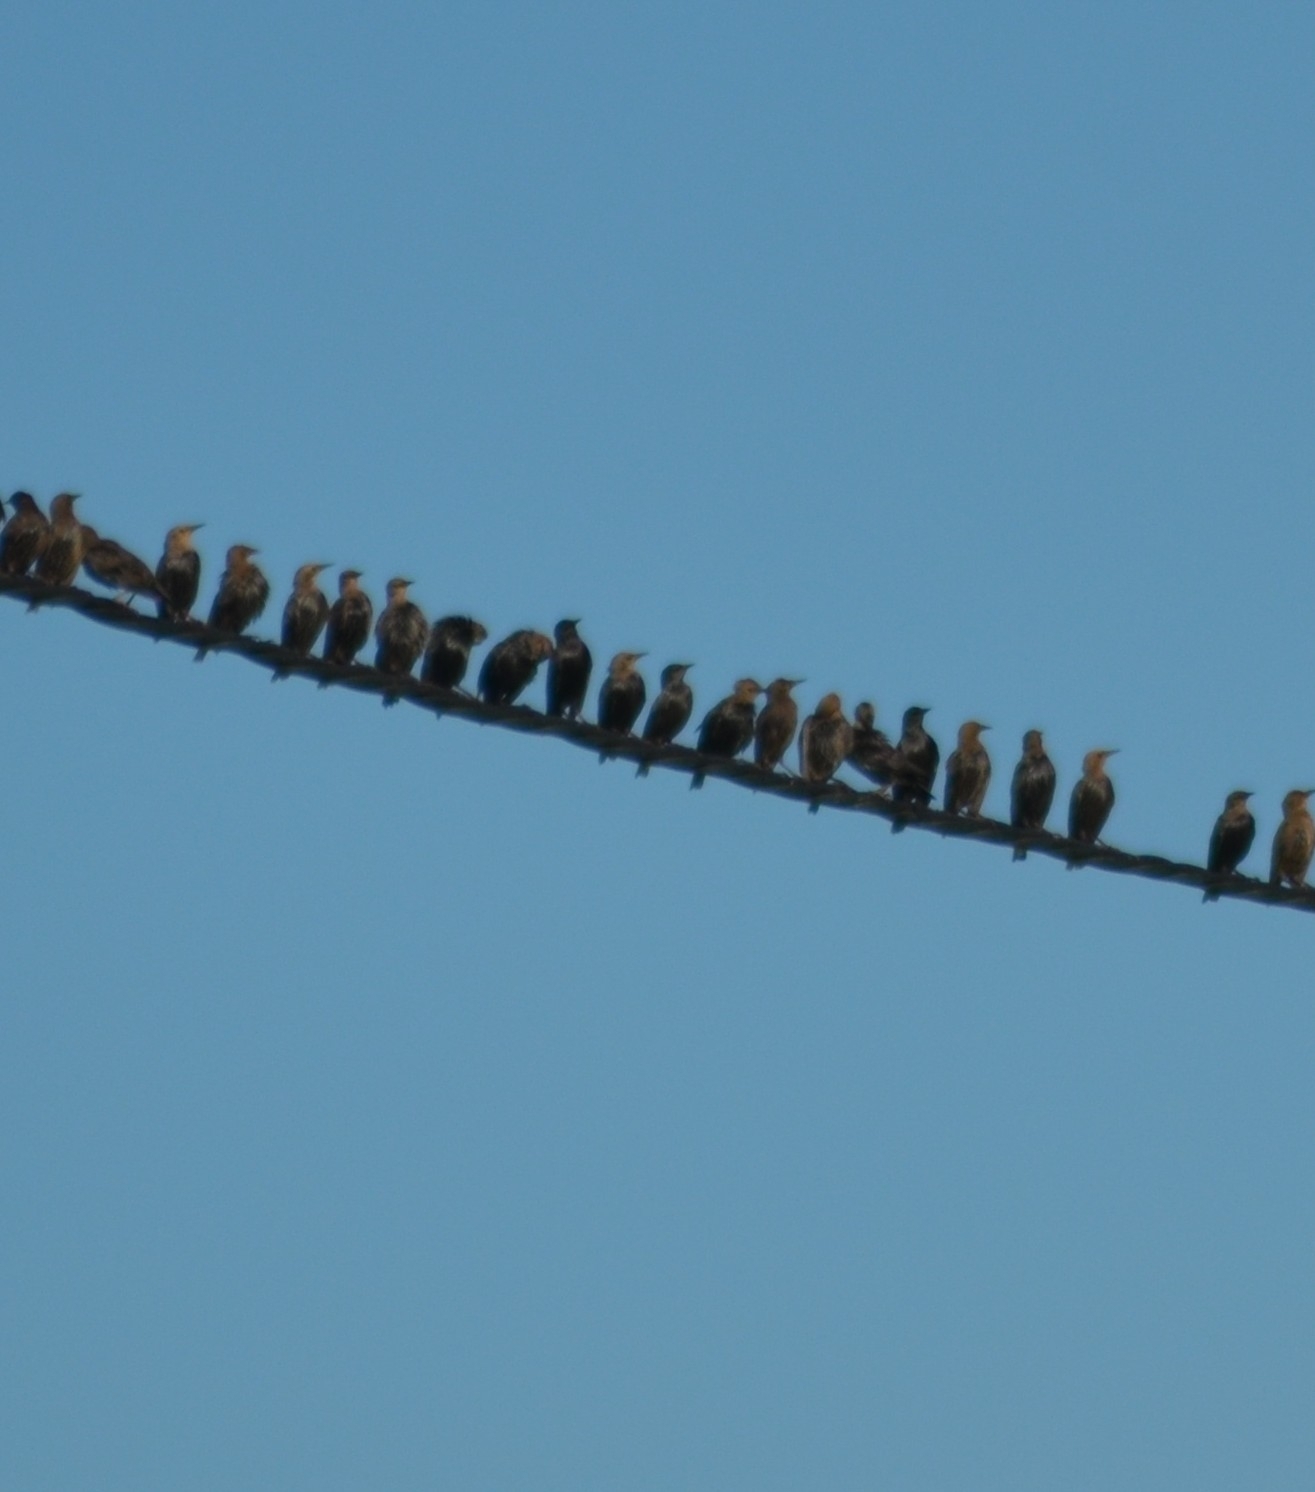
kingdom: Animalia
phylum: Chordata
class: Aves
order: Passeriformes
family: Sturnidae
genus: Sturnus
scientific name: Sturnus unicolor
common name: Spotless starling
